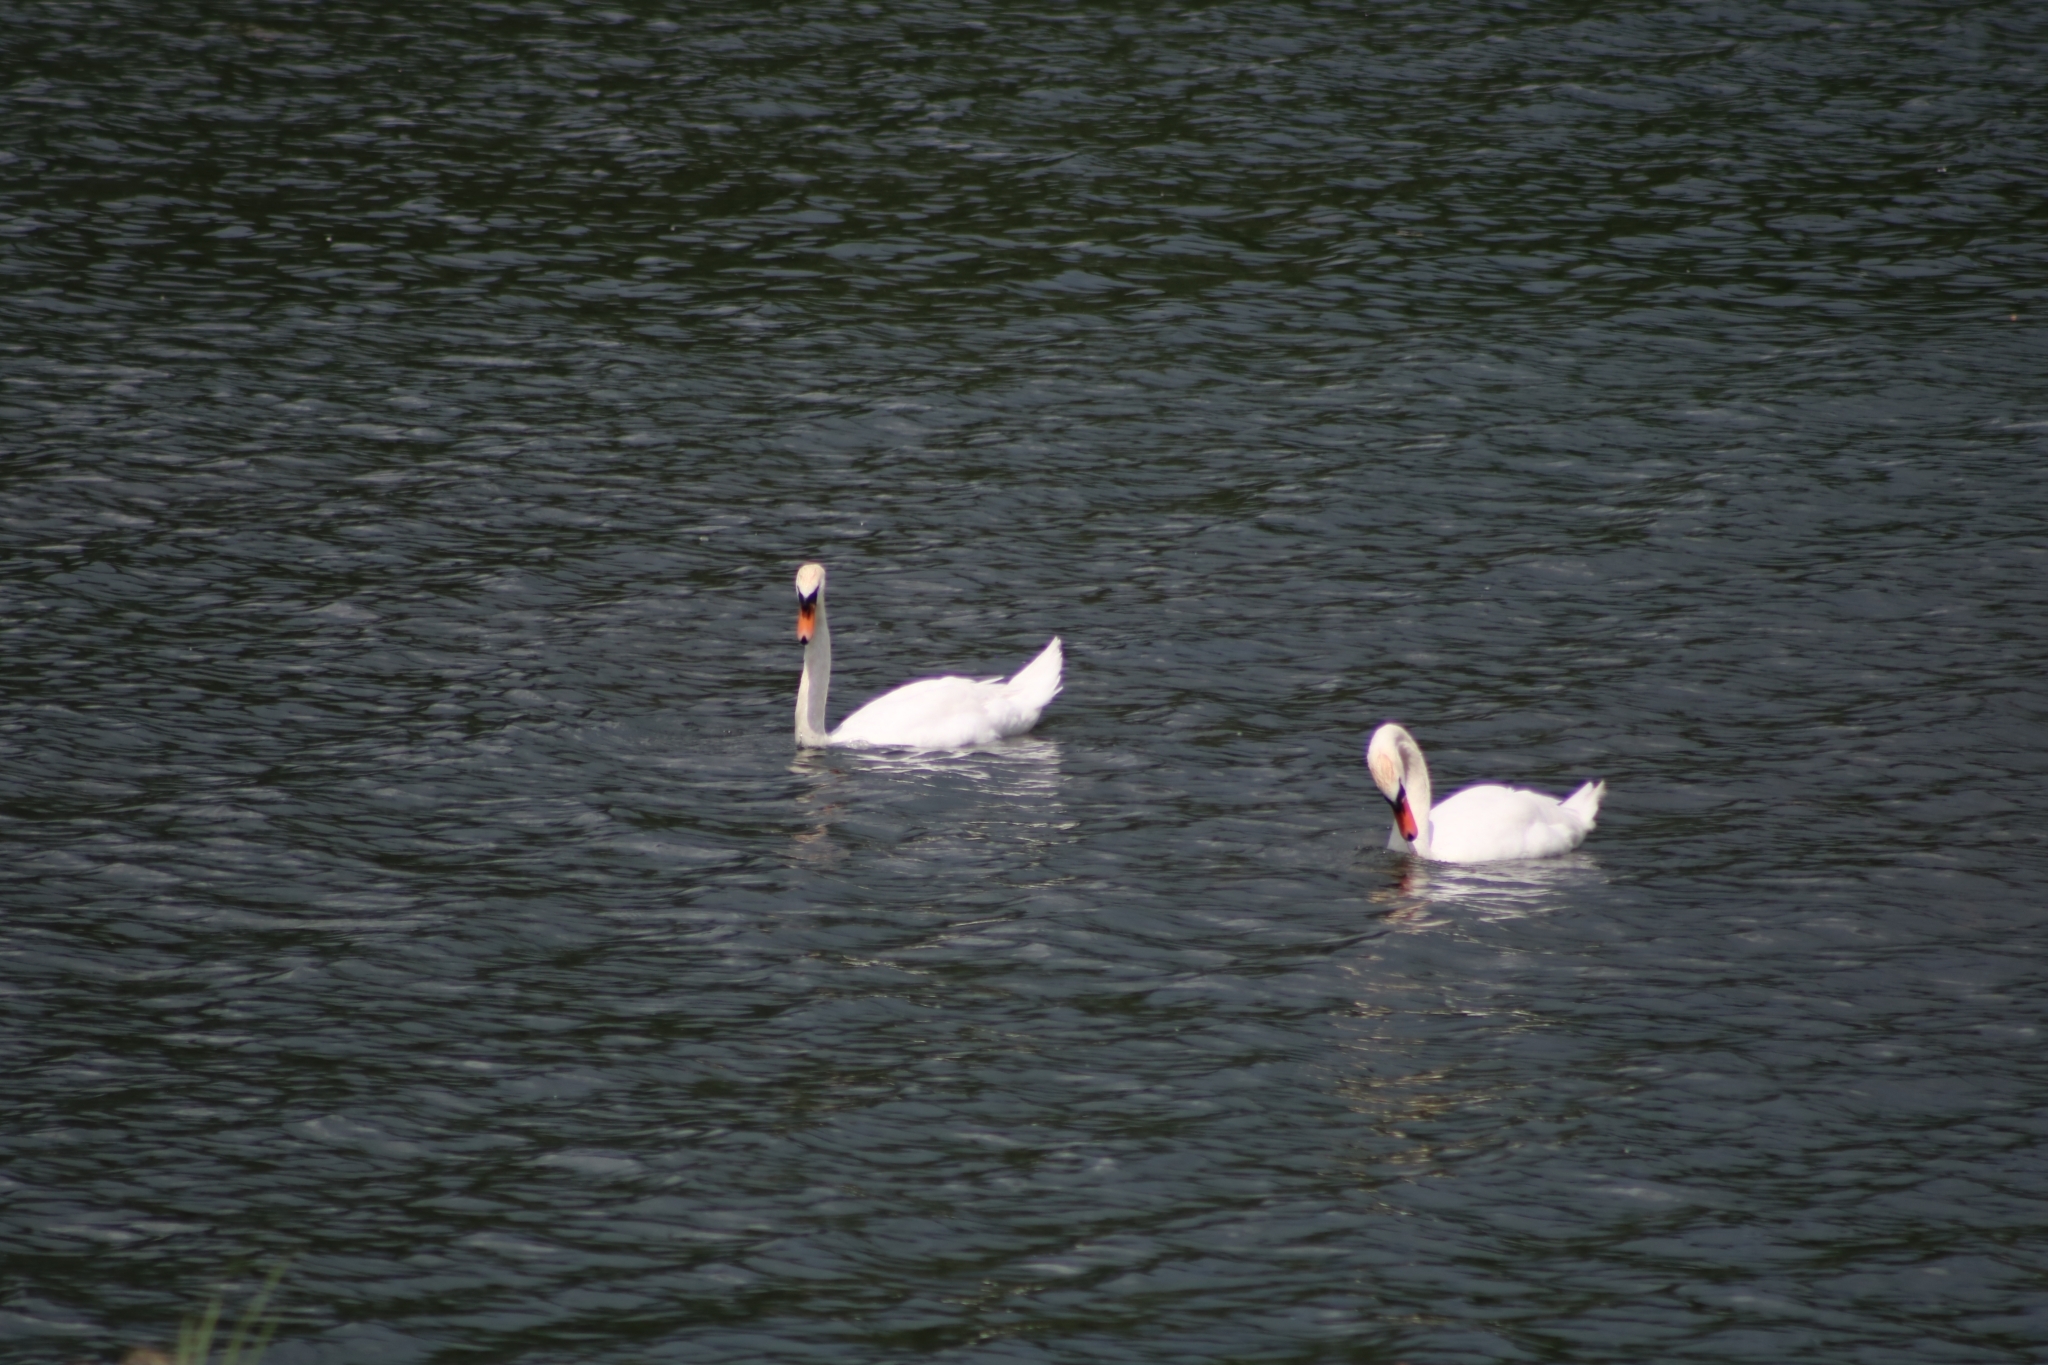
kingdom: Animalia
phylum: Chordata
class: Aves
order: Anseriformes
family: Anatidae
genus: Cygnus
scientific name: Cygnus olor
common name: Mute swan
